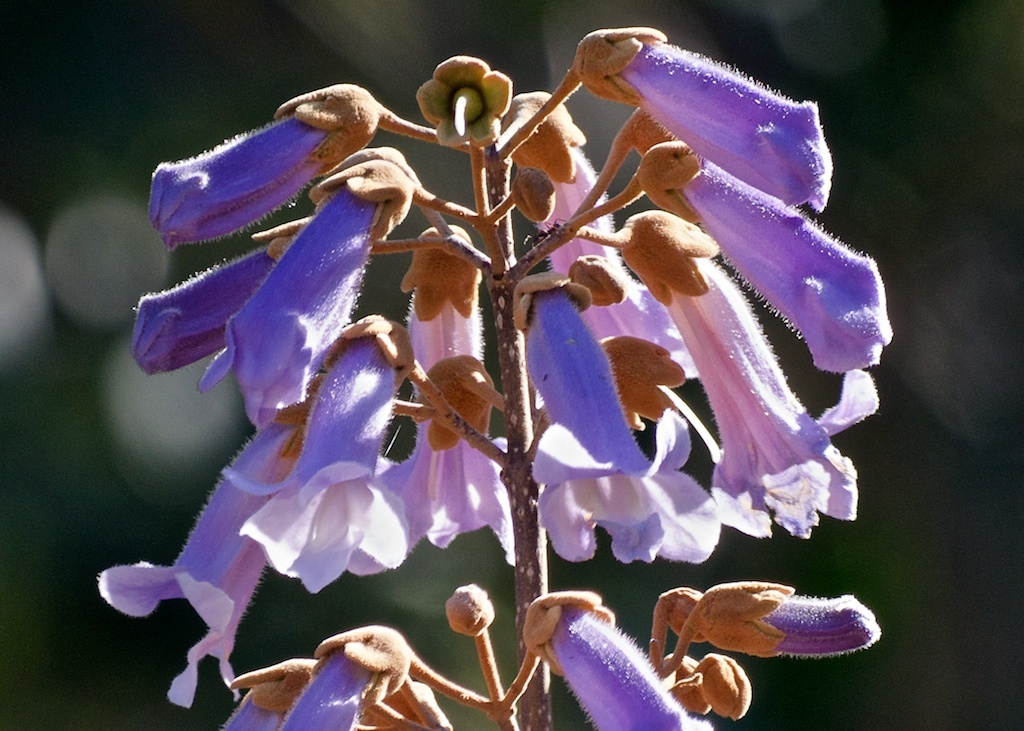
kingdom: Plantae
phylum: Tracheophyta
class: Magnoliopsida
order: Lamiales
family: Paulowniaceae
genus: Paulownia
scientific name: Paulownia tomentosa
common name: Foxglove-tree
